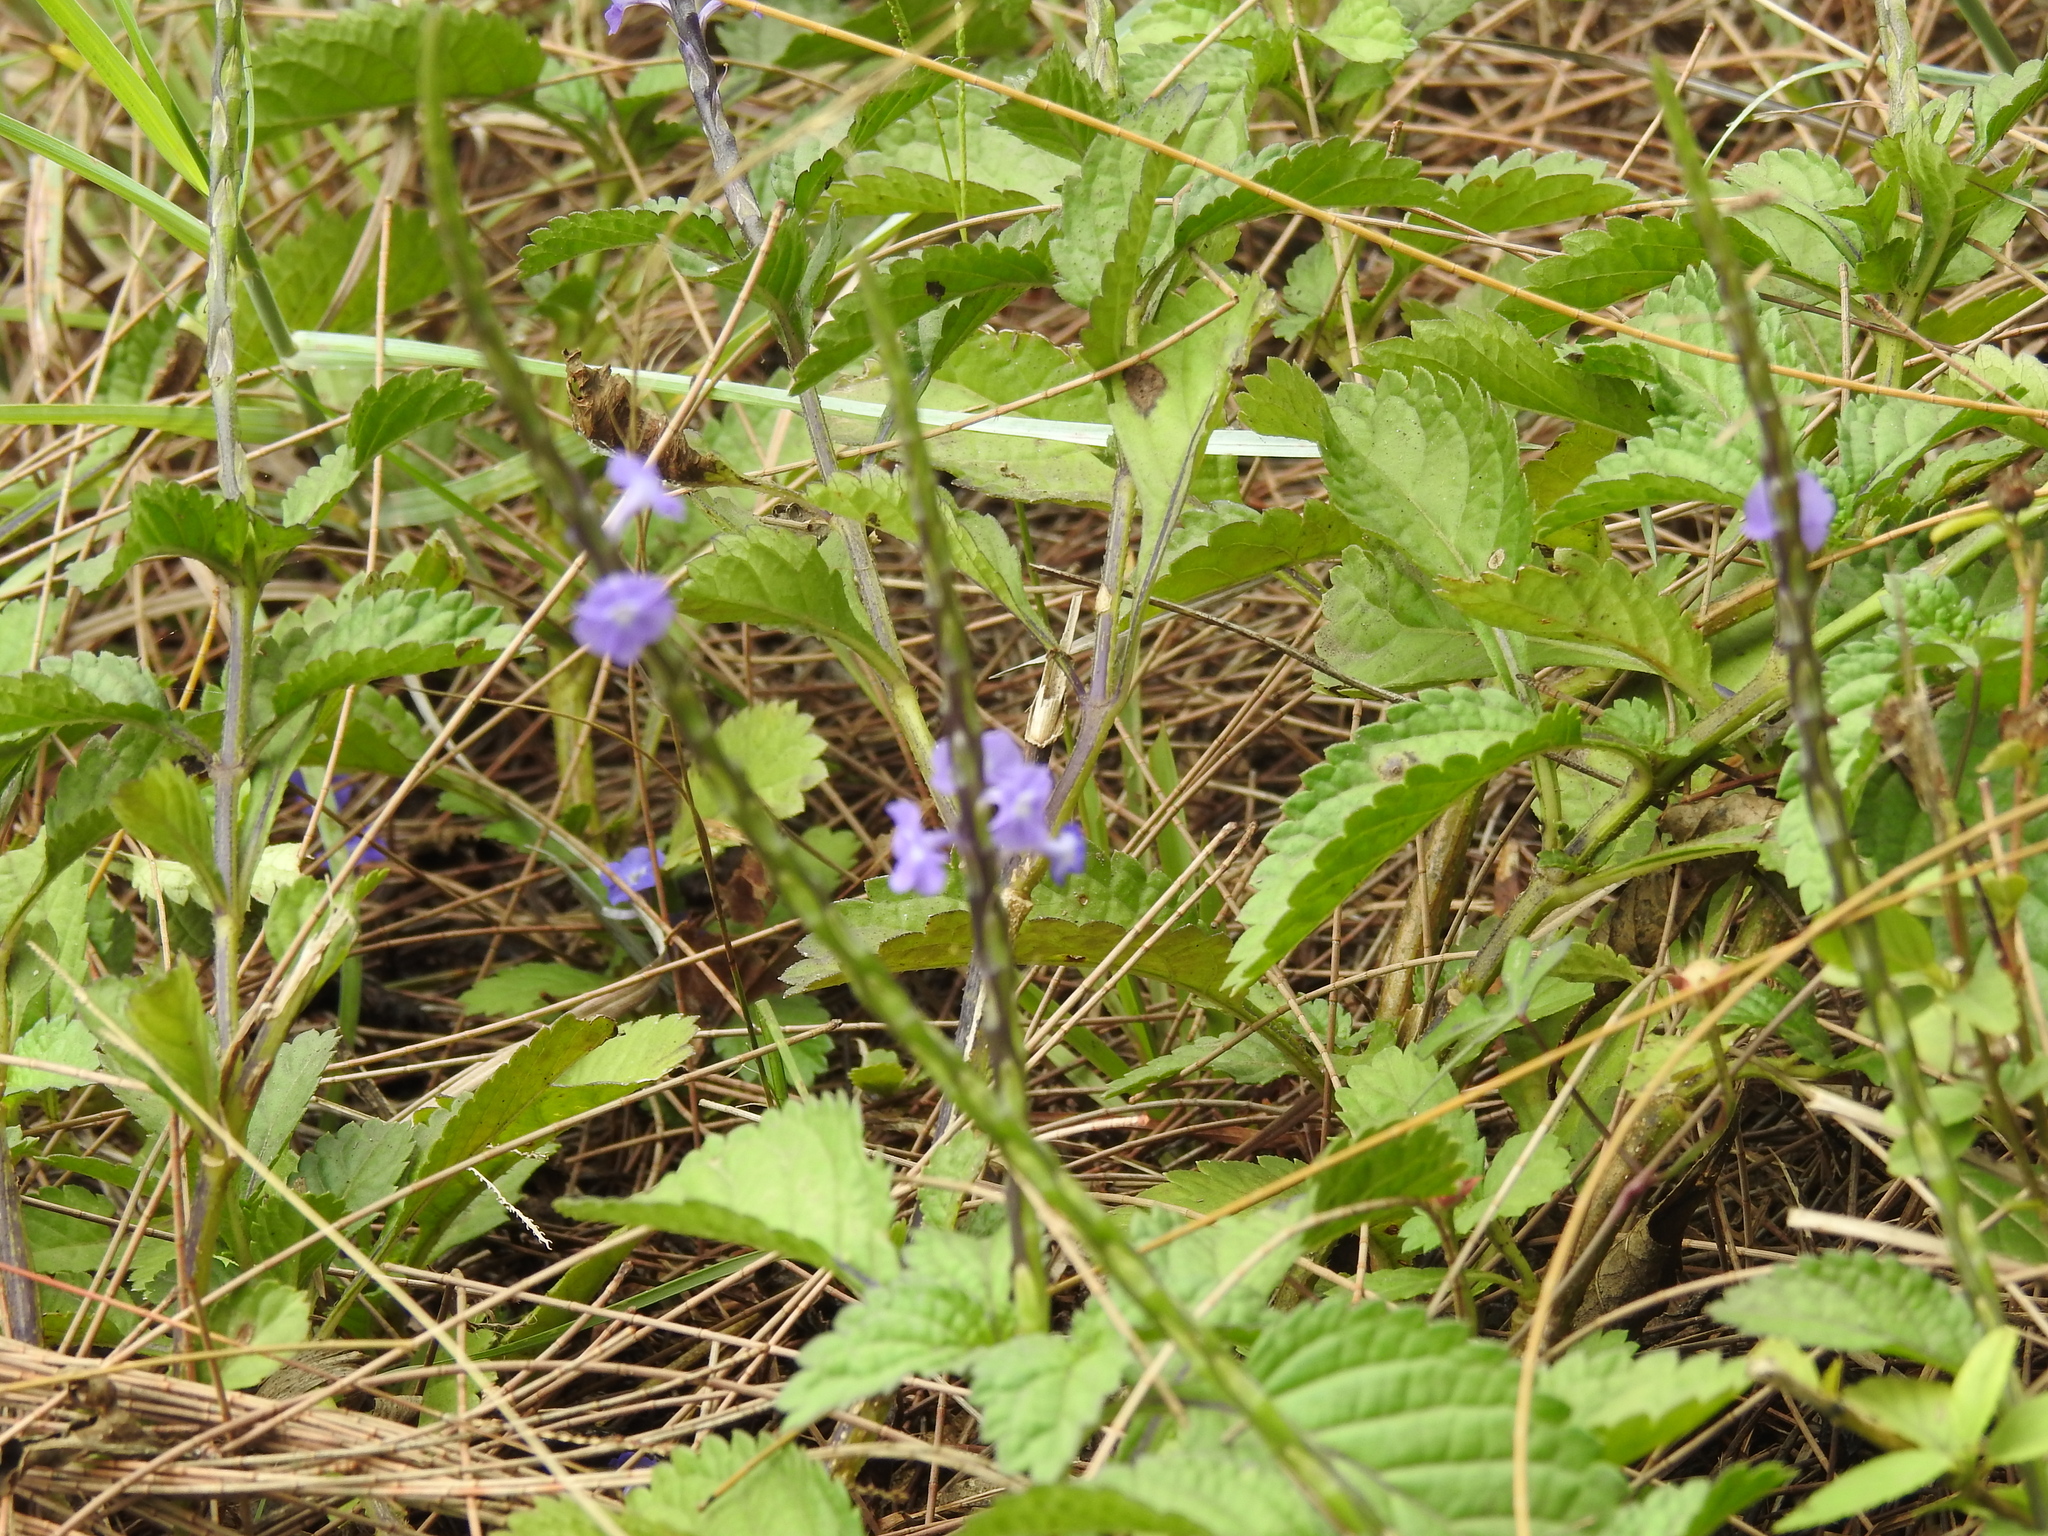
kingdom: Plantae
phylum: Tracheophyta
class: Magnoliopsida
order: Lamiales
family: Verbenaceae
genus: Stachytarpheta
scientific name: Stachytarpheta jamaicensis
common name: Light-blue snakeweed
